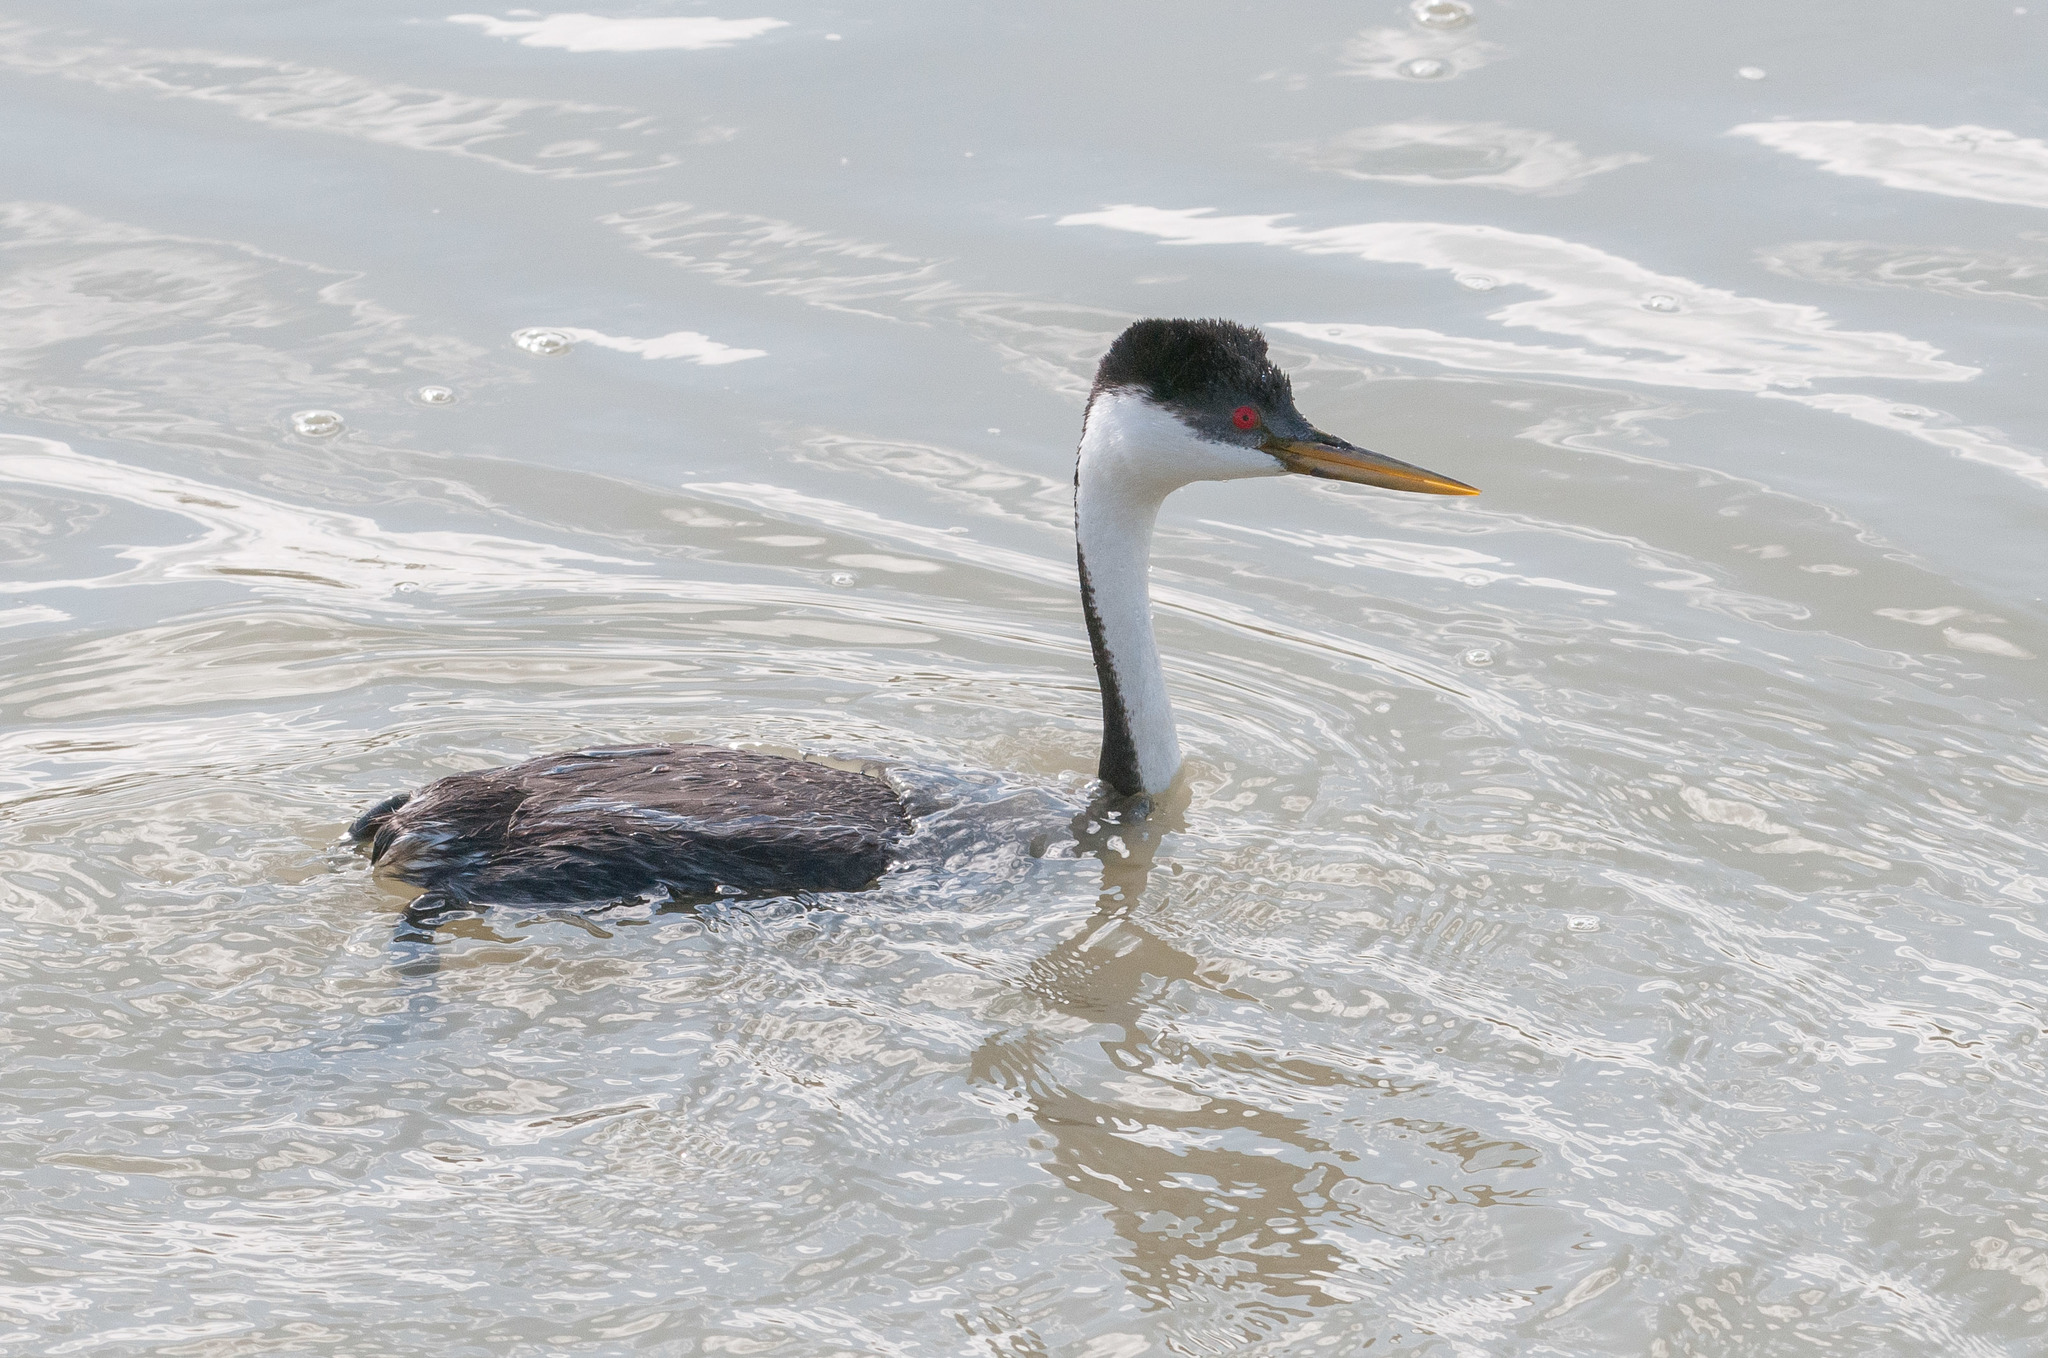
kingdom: Animalia
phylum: Chordata
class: Aves
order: Podicipediformes
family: Podicipedidae
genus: Aechmophorus
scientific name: Aechmophorus occidentalis
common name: Western grebe
